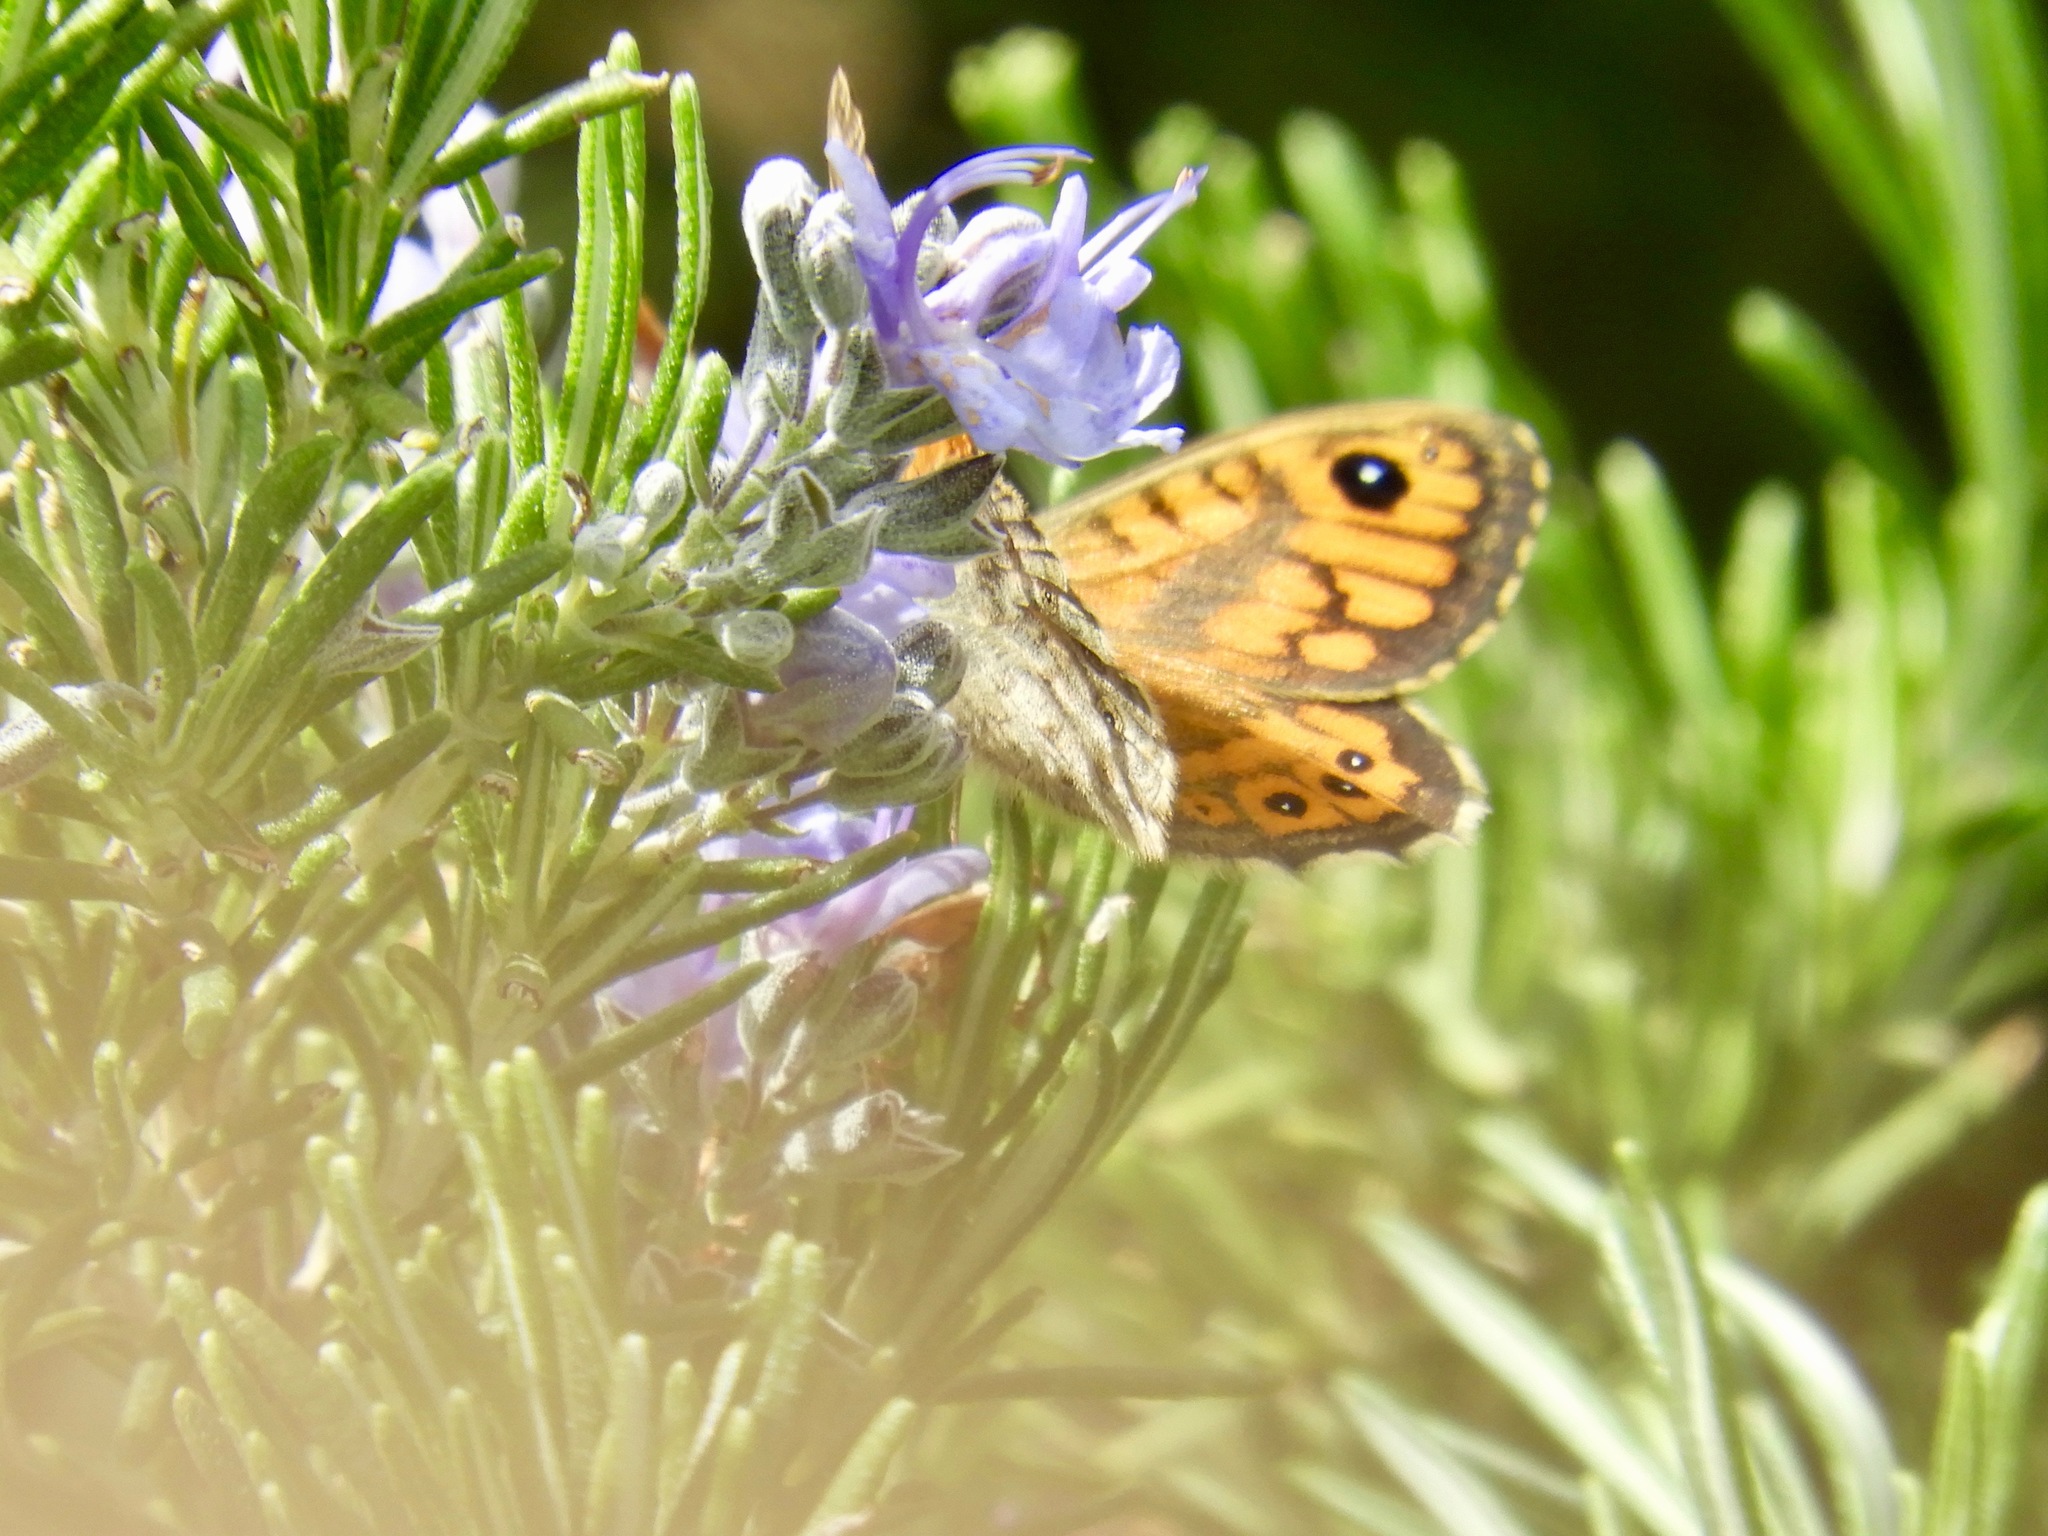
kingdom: Animalia
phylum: Arthropoda
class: Insecta
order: Lepidoptera
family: Nymphalidae
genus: Pararge
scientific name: Pararge Lasiommata megera
